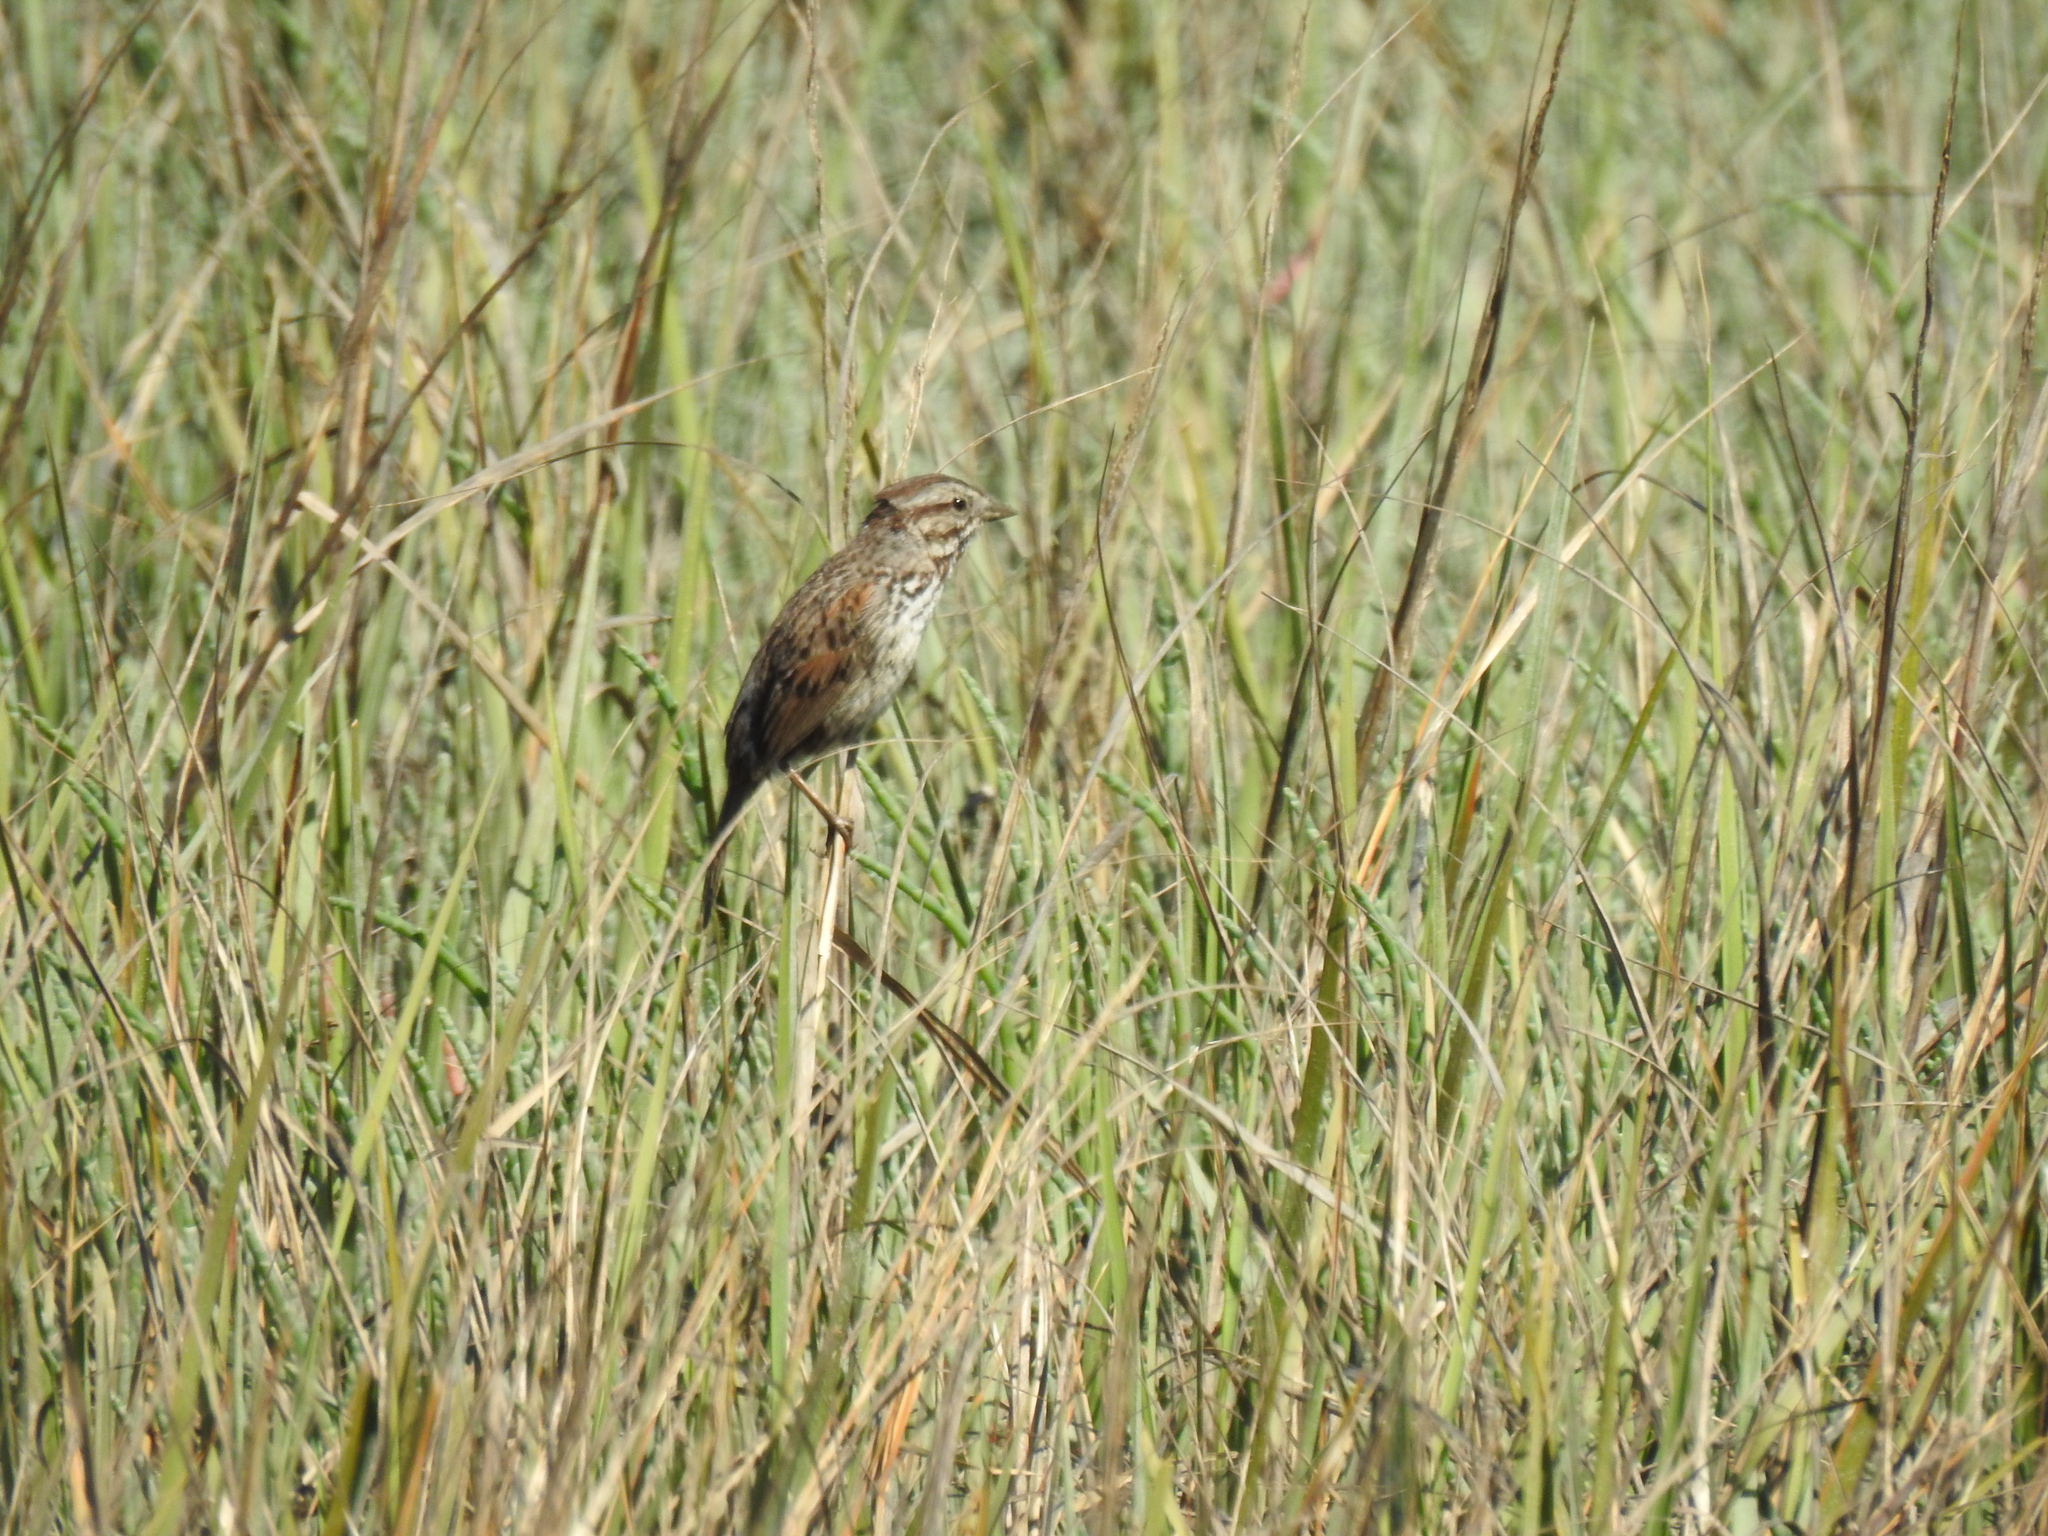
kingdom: Animalia
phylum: Chordata
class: Aves
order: Passeriformes
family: Passerellidae
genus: Melospiza
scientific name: Melospiza melodia
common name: Song sparrow
